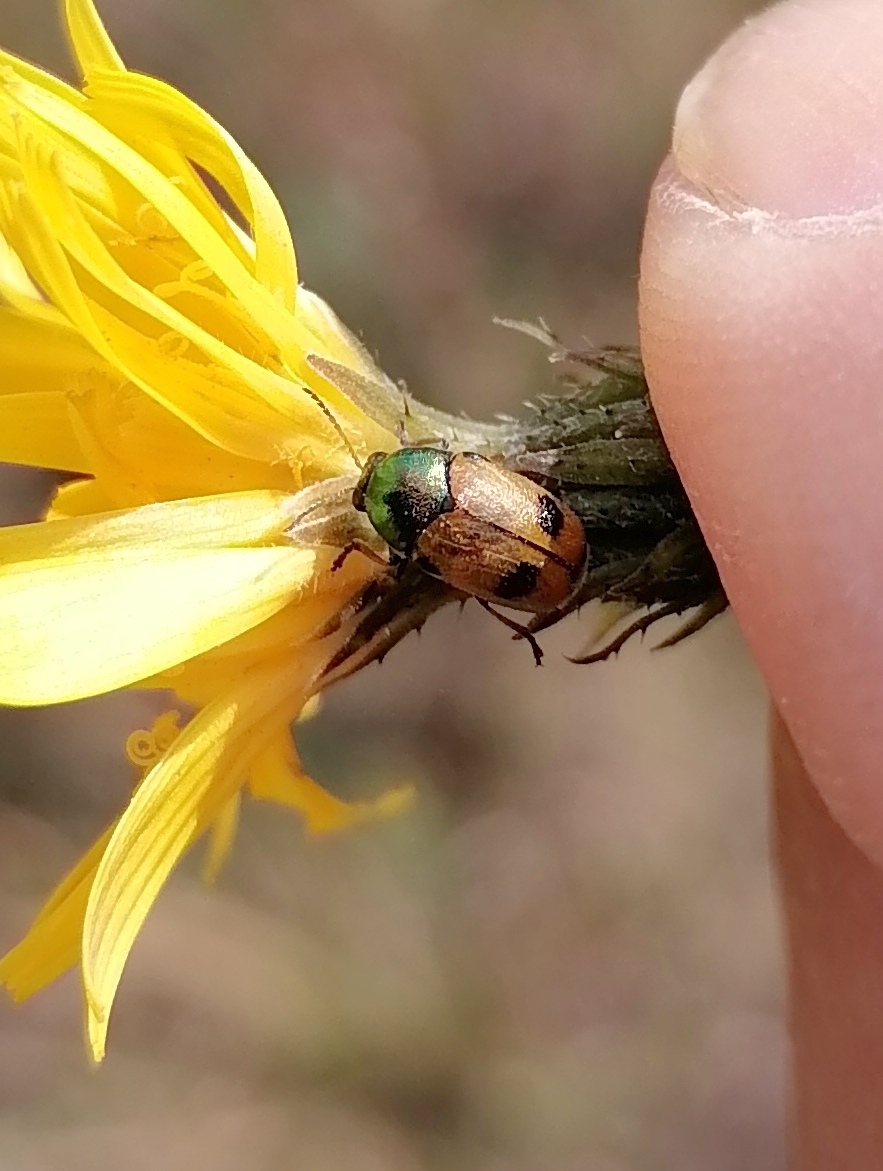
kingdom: Animalia
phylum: Arthropoda
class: Insecta
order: Coleoptera
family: Chrysomelidae
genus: Cryptocephalus
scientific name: Cryptocephalus laetus
